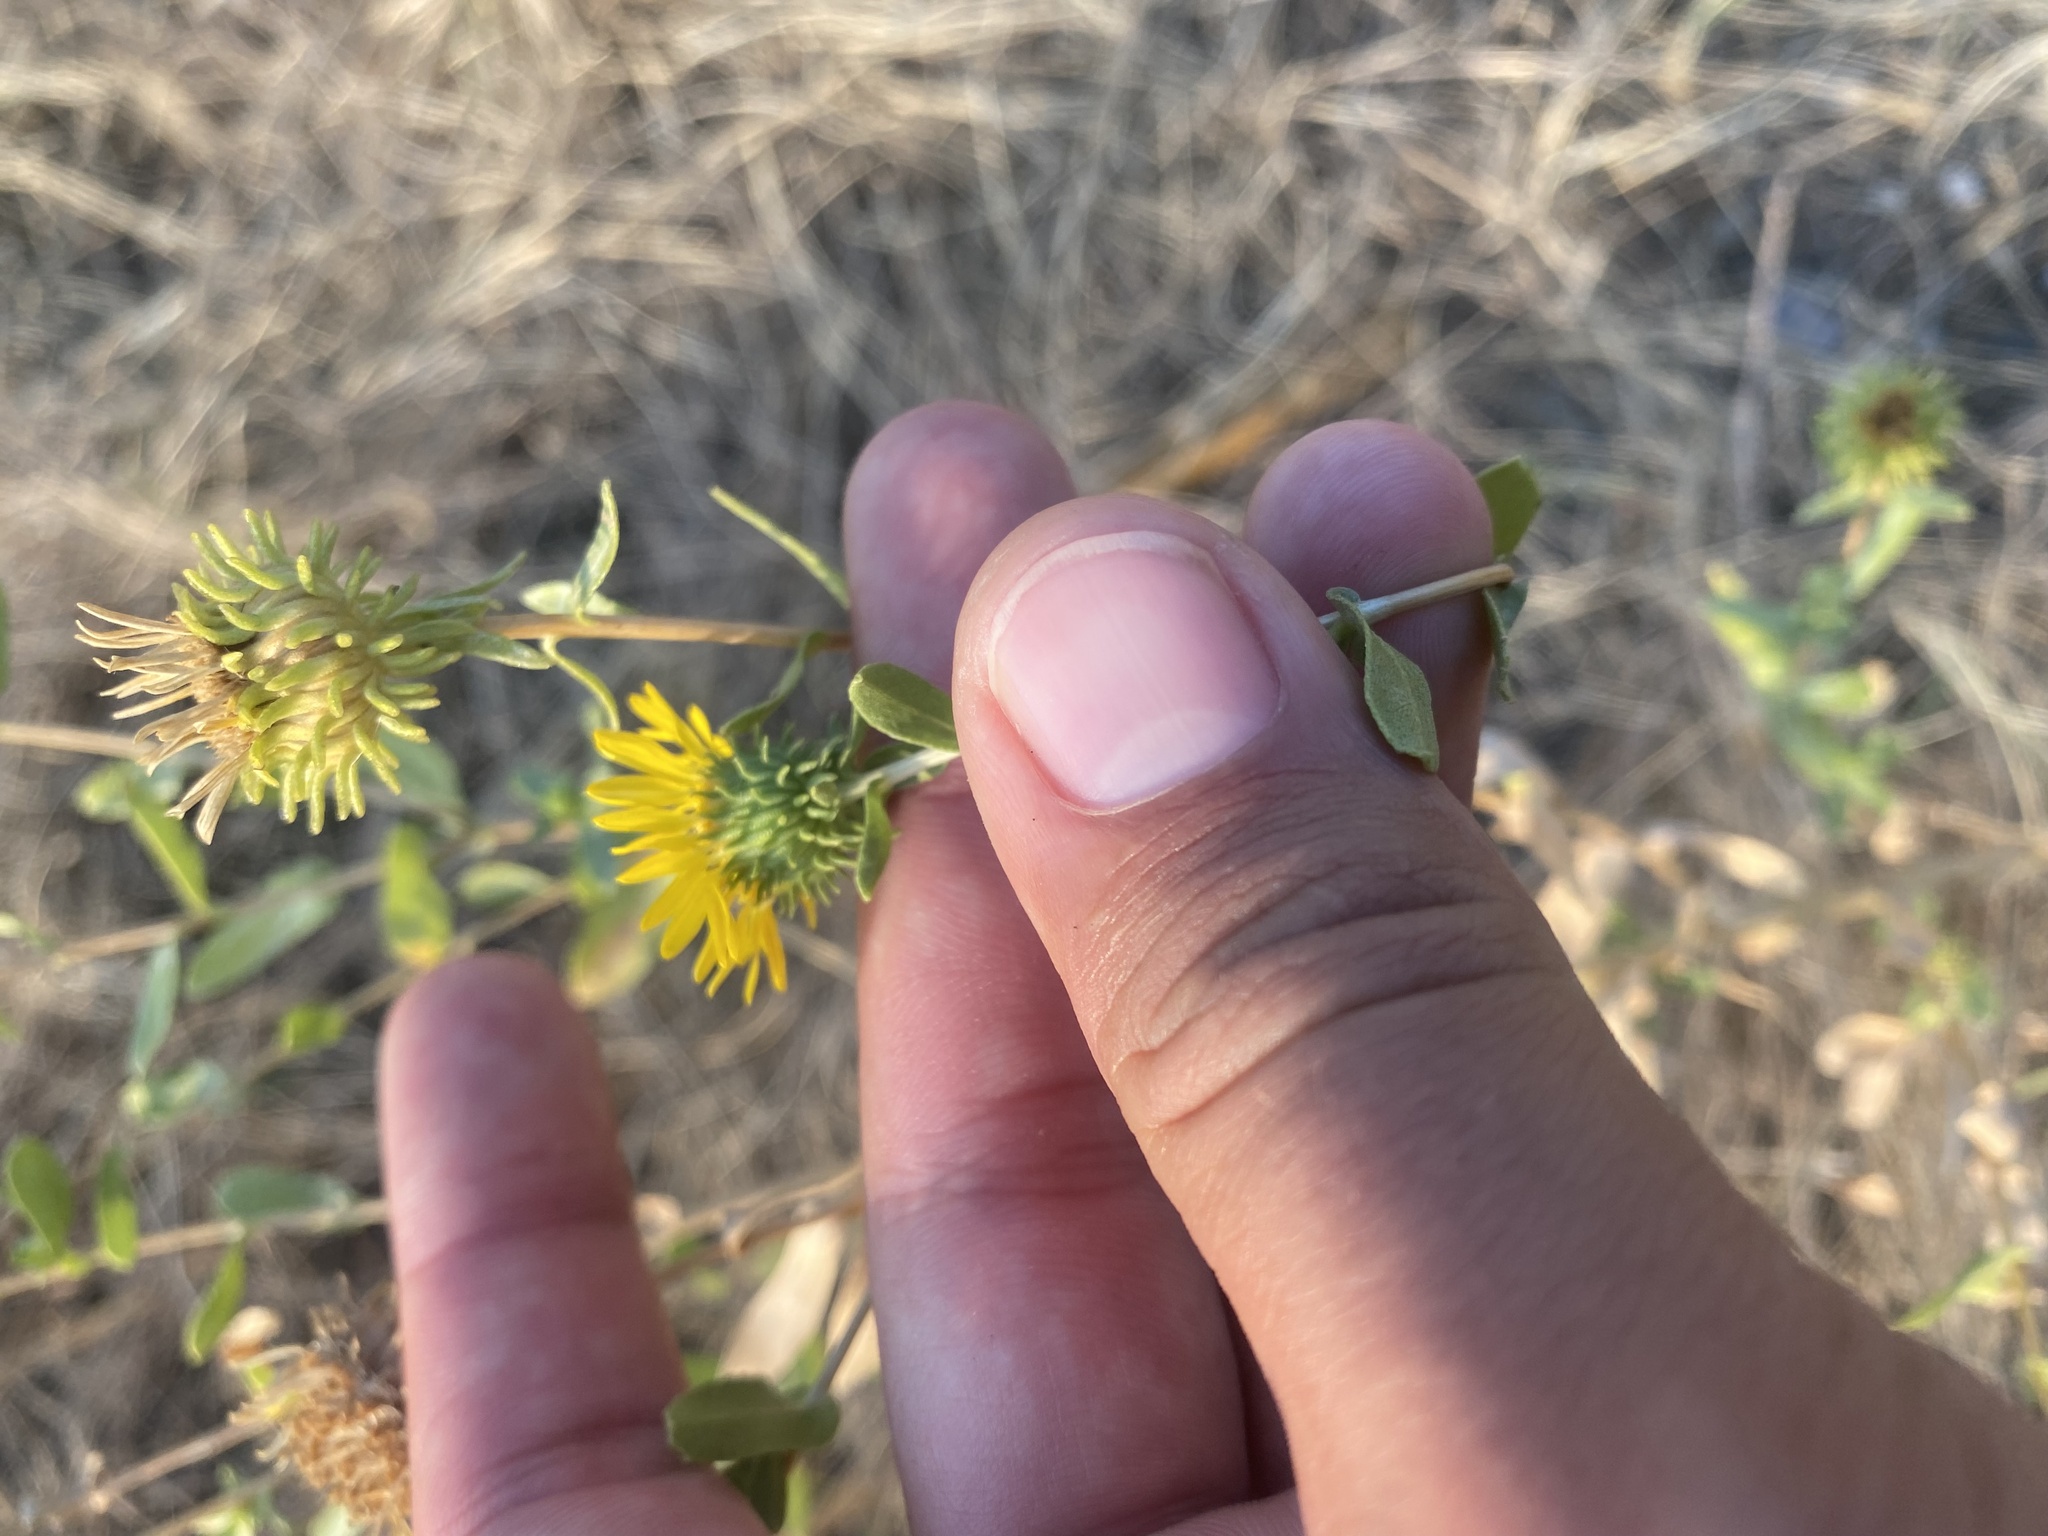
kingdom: Plantae
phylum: Tracheophyta
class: Magnoliopsida
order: Asterales
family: Asteraceae
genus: Grindelia
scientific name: Grindelia squarrosa
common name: Curly-cup gumweed
